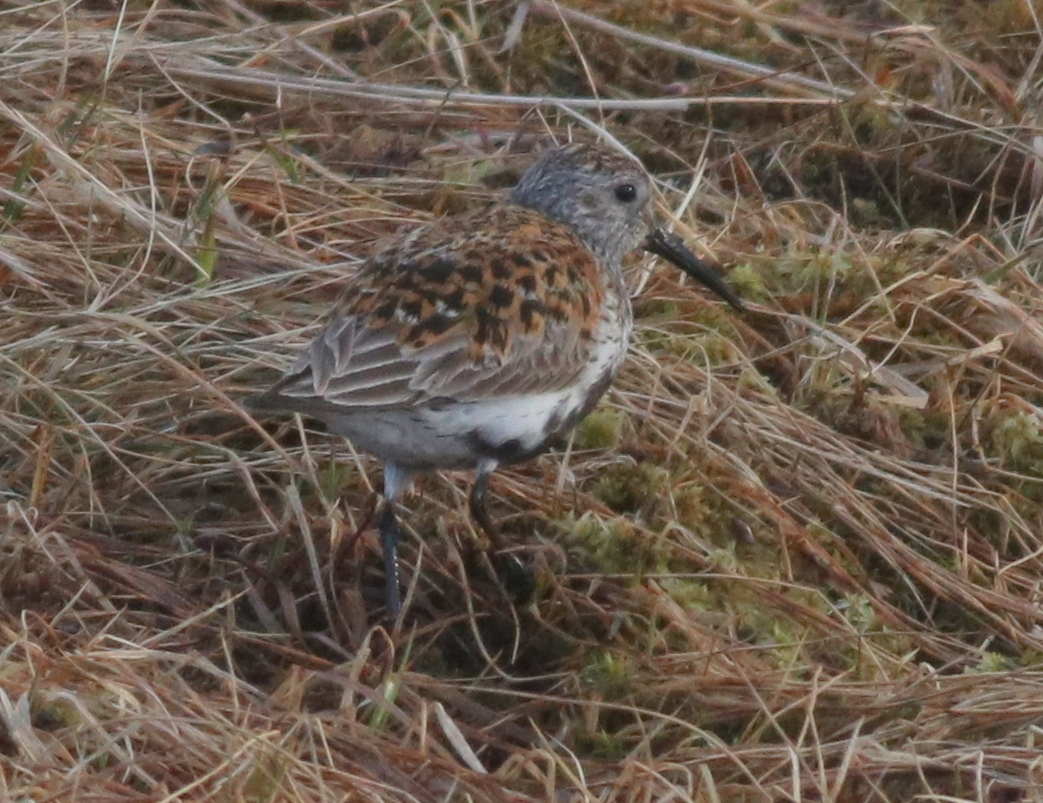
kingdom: Animalia
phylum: Chordata
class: Aves
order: Charadriiformes
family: Scolopacidae
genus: Calidris
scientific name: Calidris alpina
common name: Dunlin
